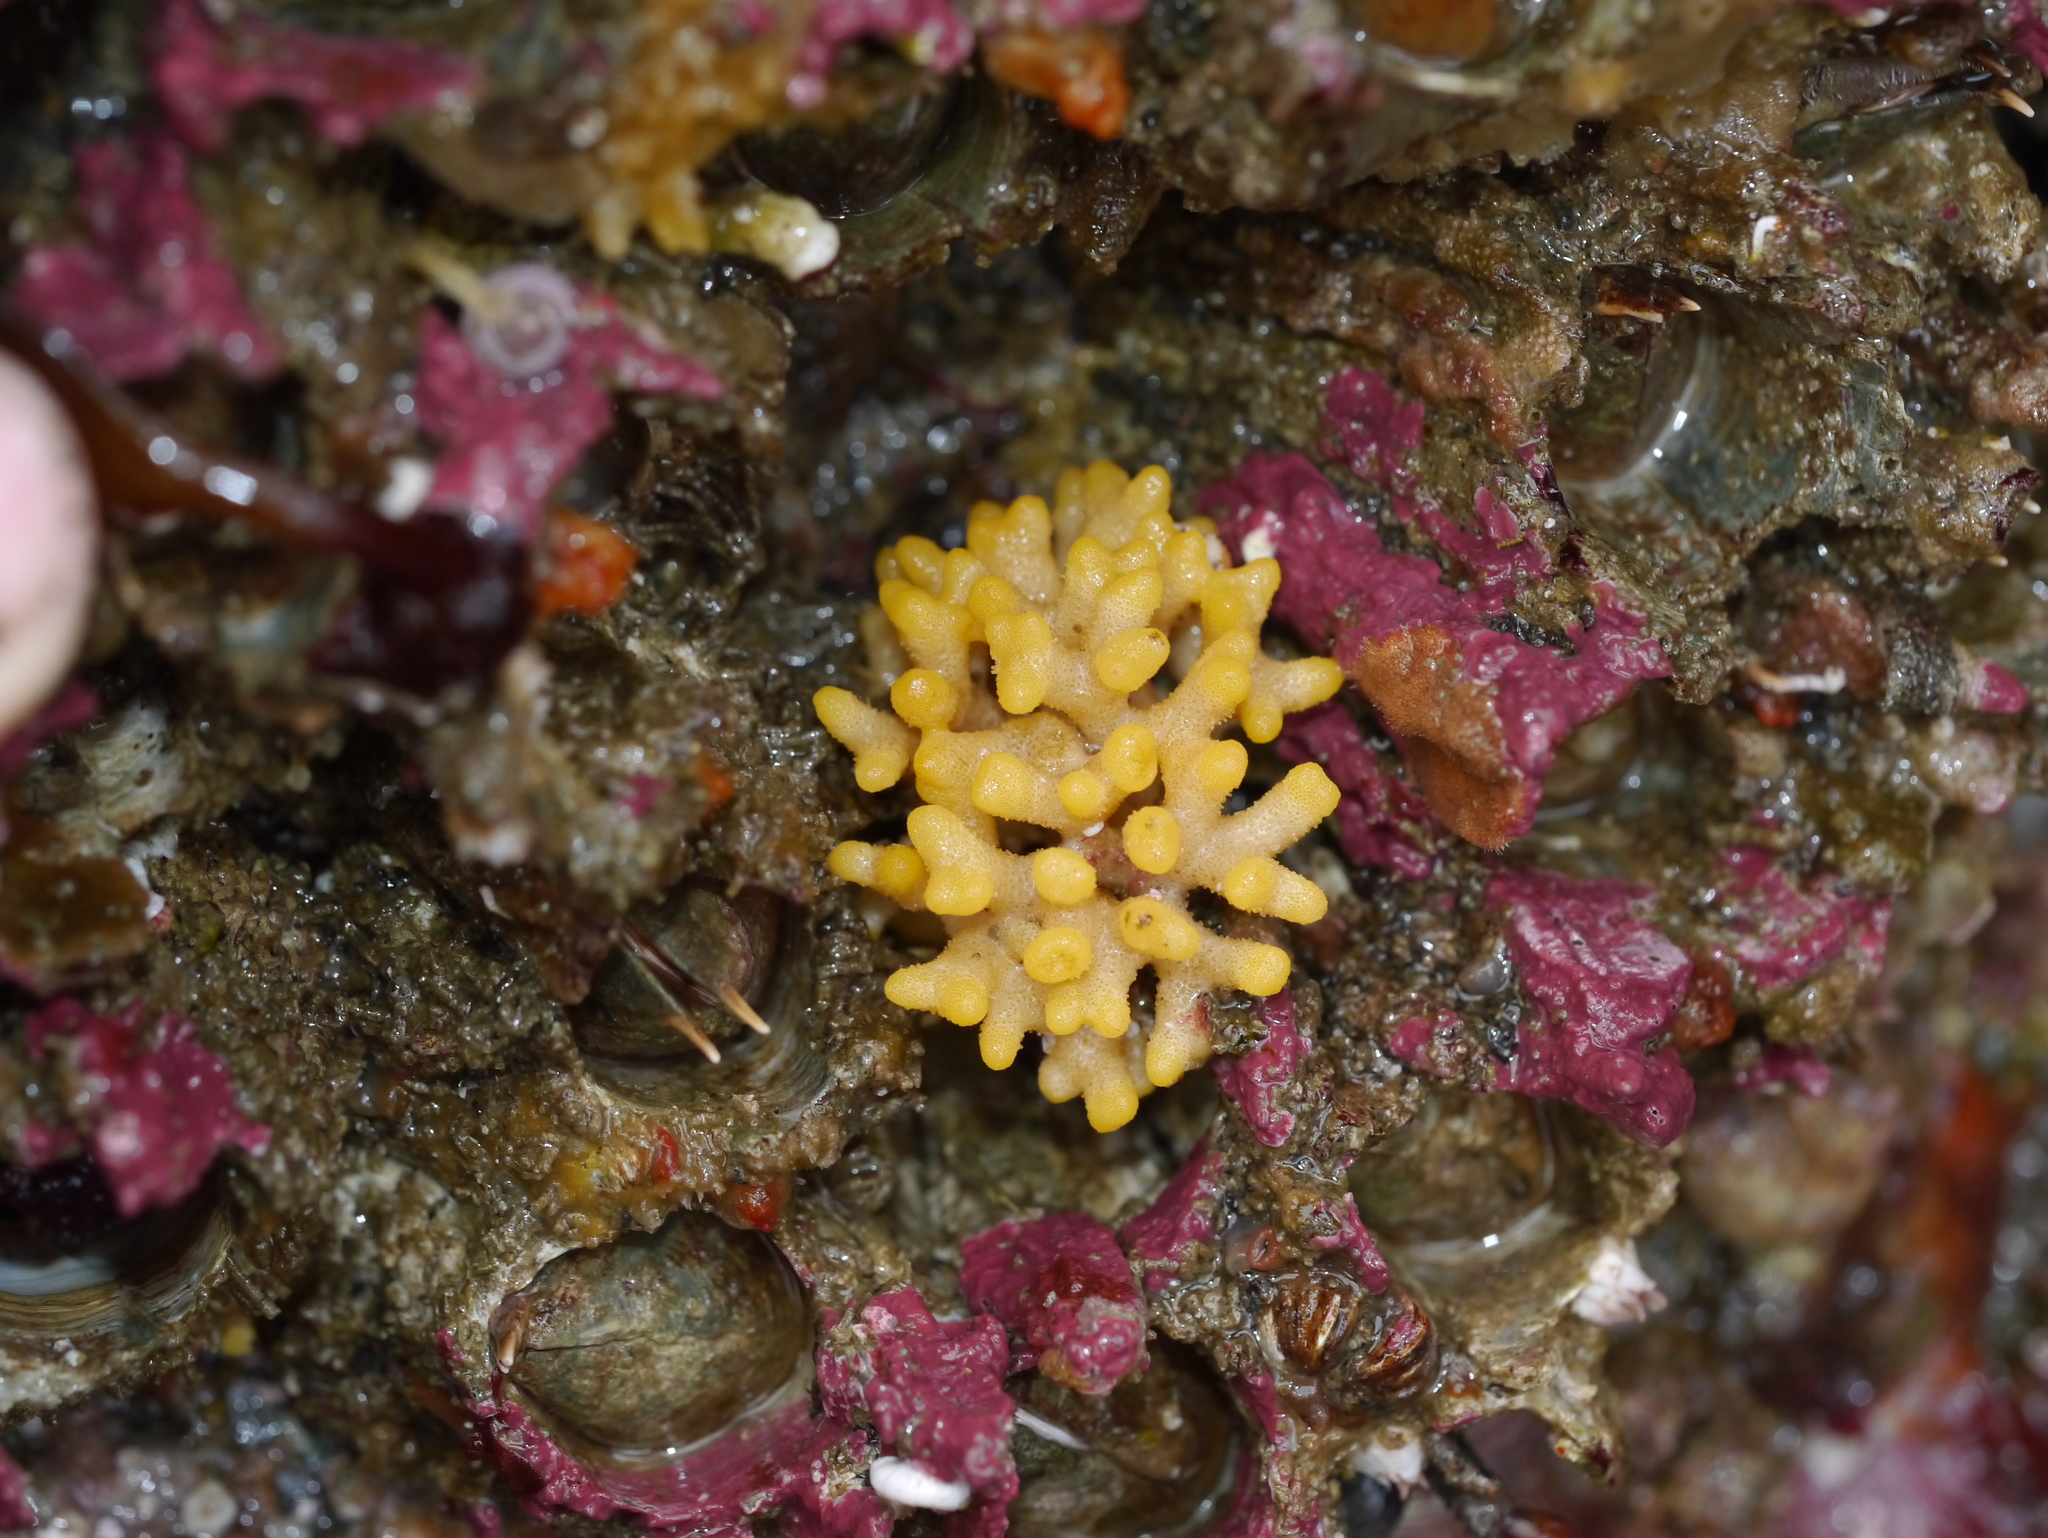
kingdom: Animalia
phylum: Bryozoa
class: Stenolaemata
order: Cyclostomatida
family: Heteroporidae
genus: Heteropora
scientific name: Heteropora pacifica
